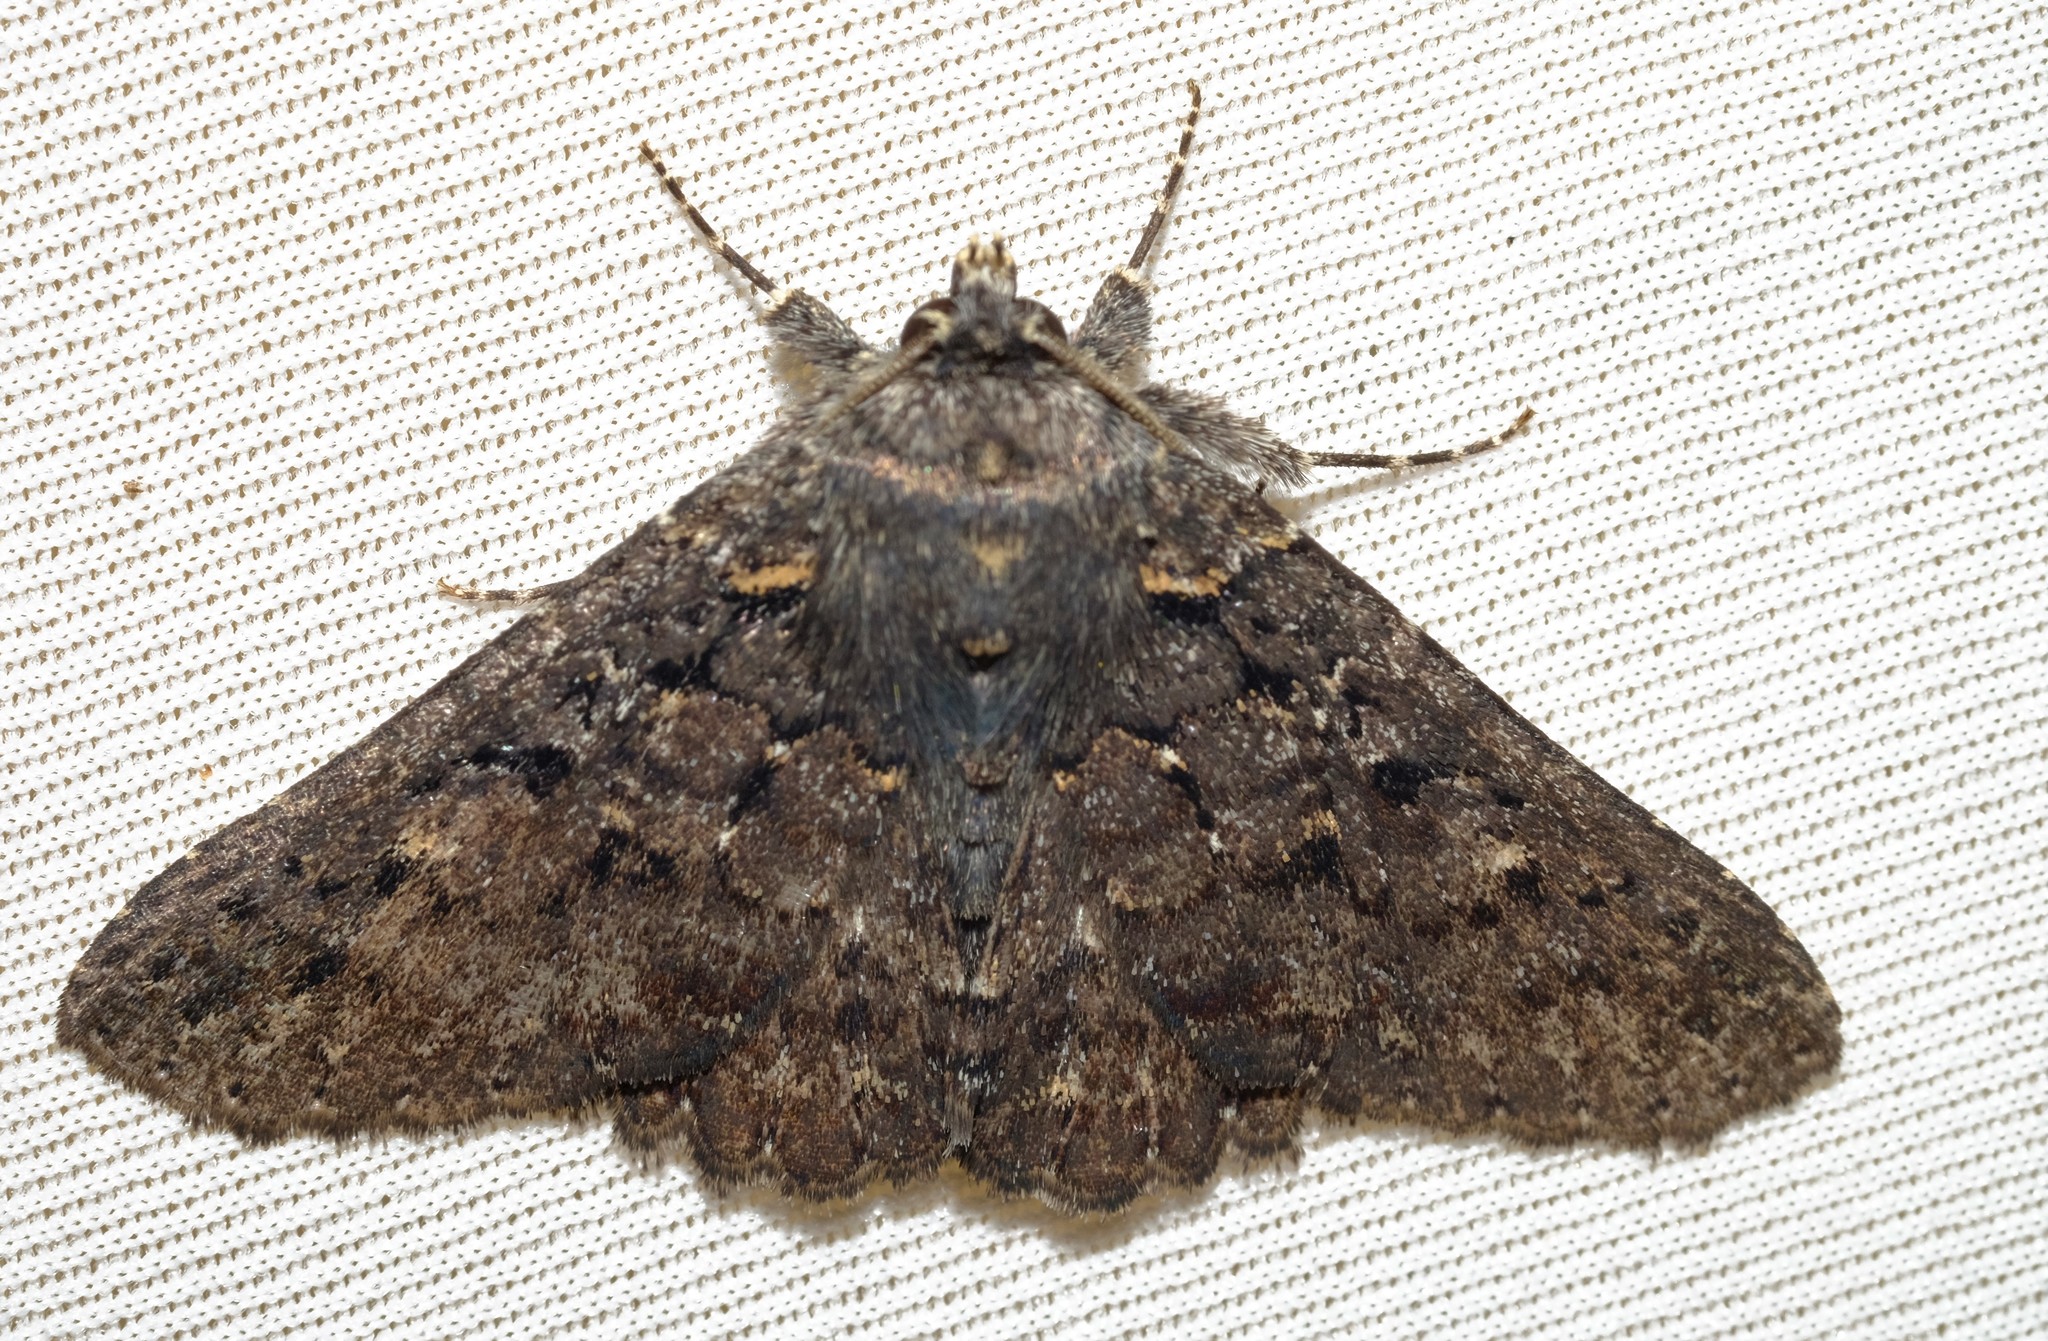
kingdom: Animalia
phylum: Arthropoda
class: Insecta
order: Lepidoptera
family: Erebidae
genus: Praxis
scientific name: Praxis
